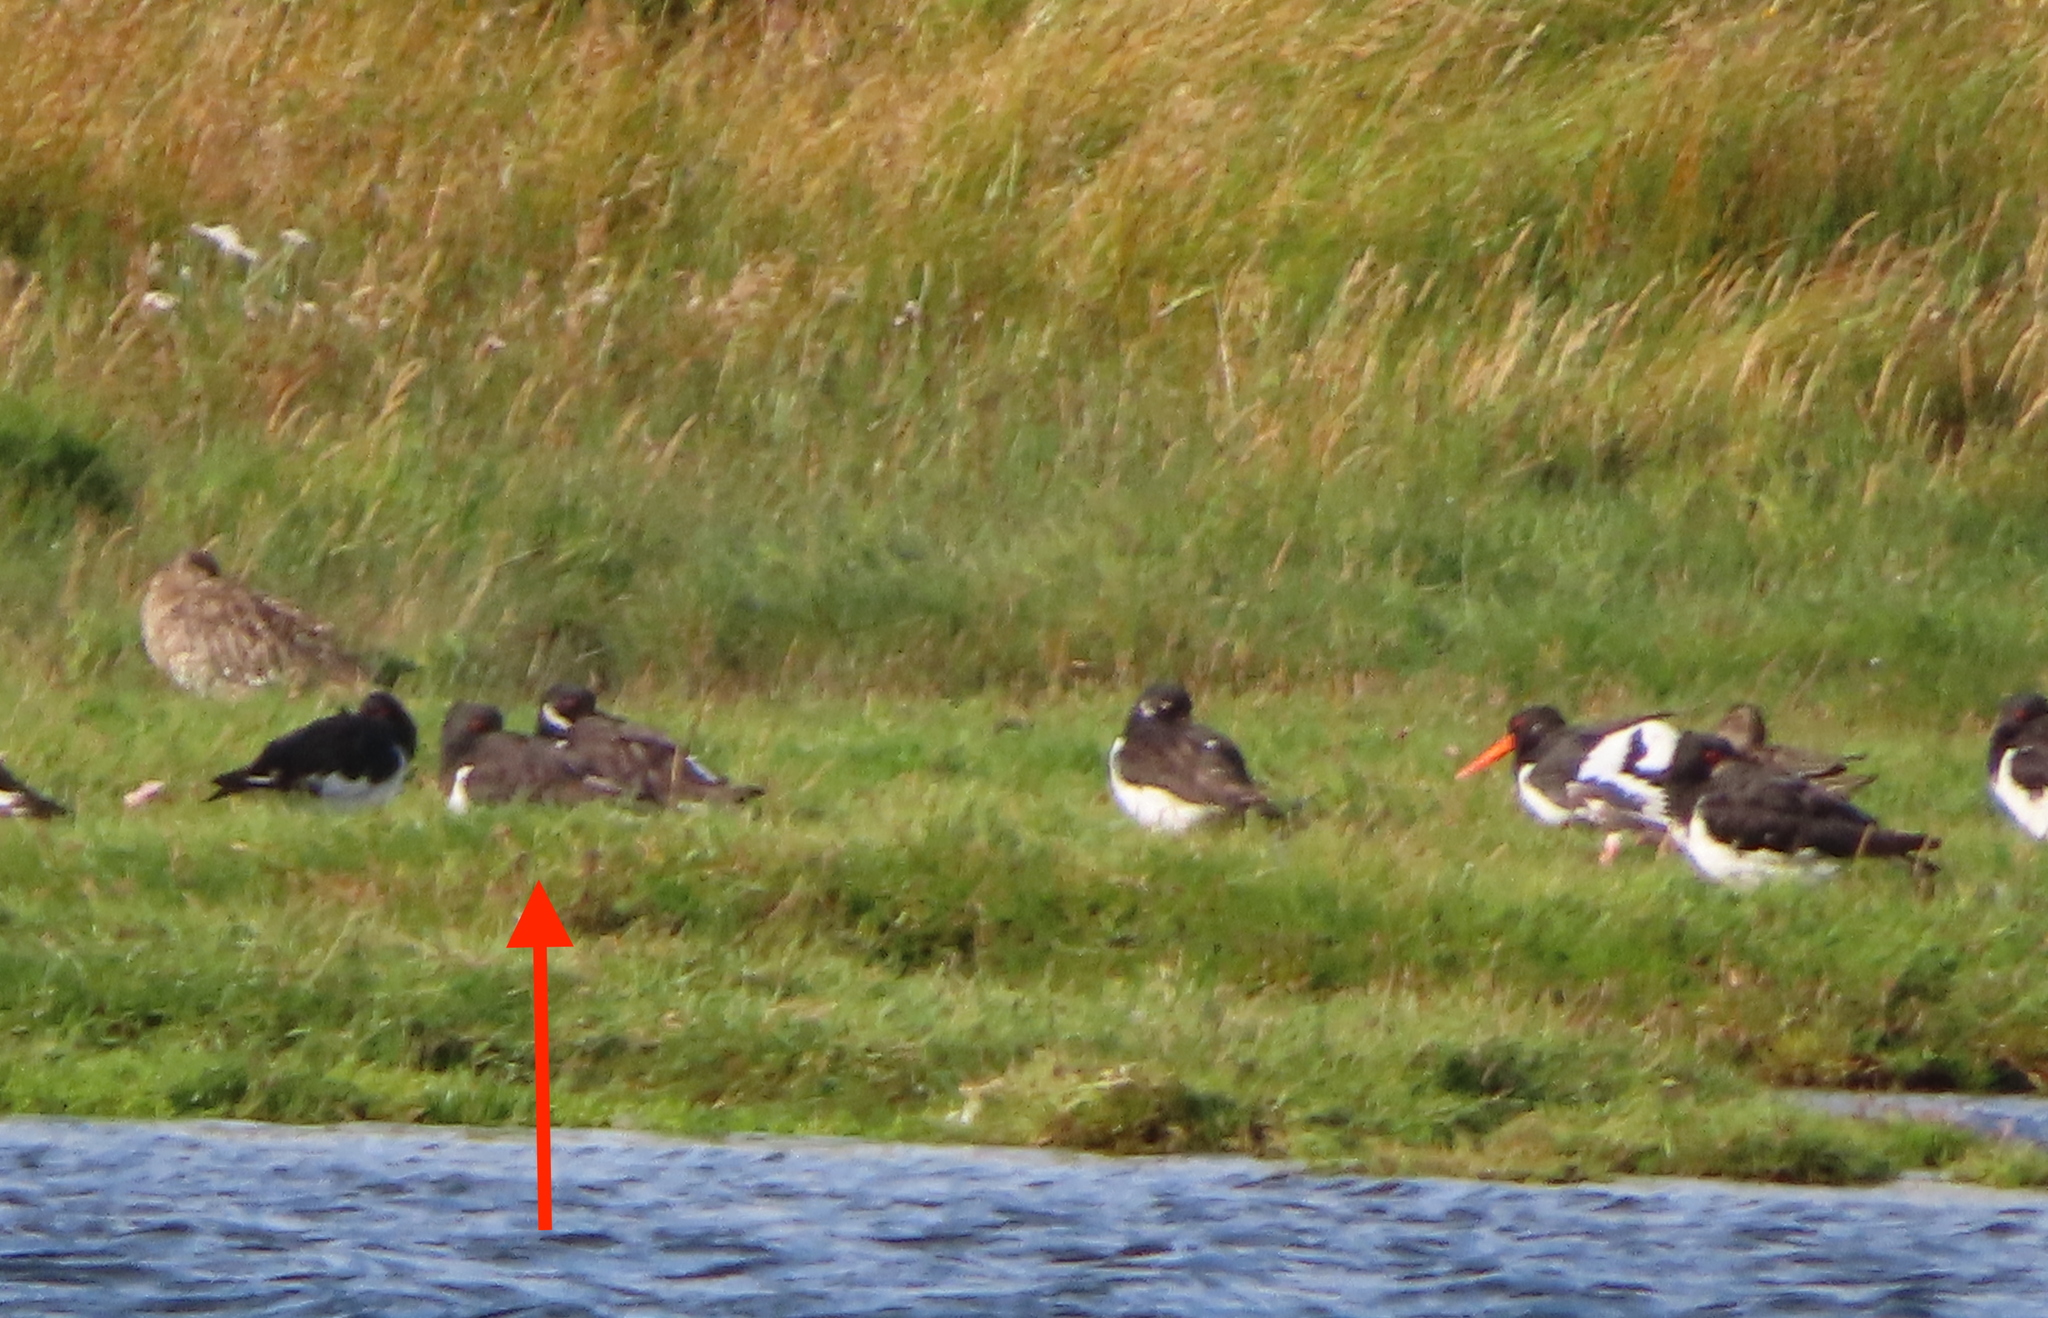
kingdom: Animalia
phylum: Chordata
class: Aves
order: Charadriiformes
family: Haematopodidae
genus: Haematopus
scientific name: Haematopus ostralegus
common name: Eurasian oystercatcher
